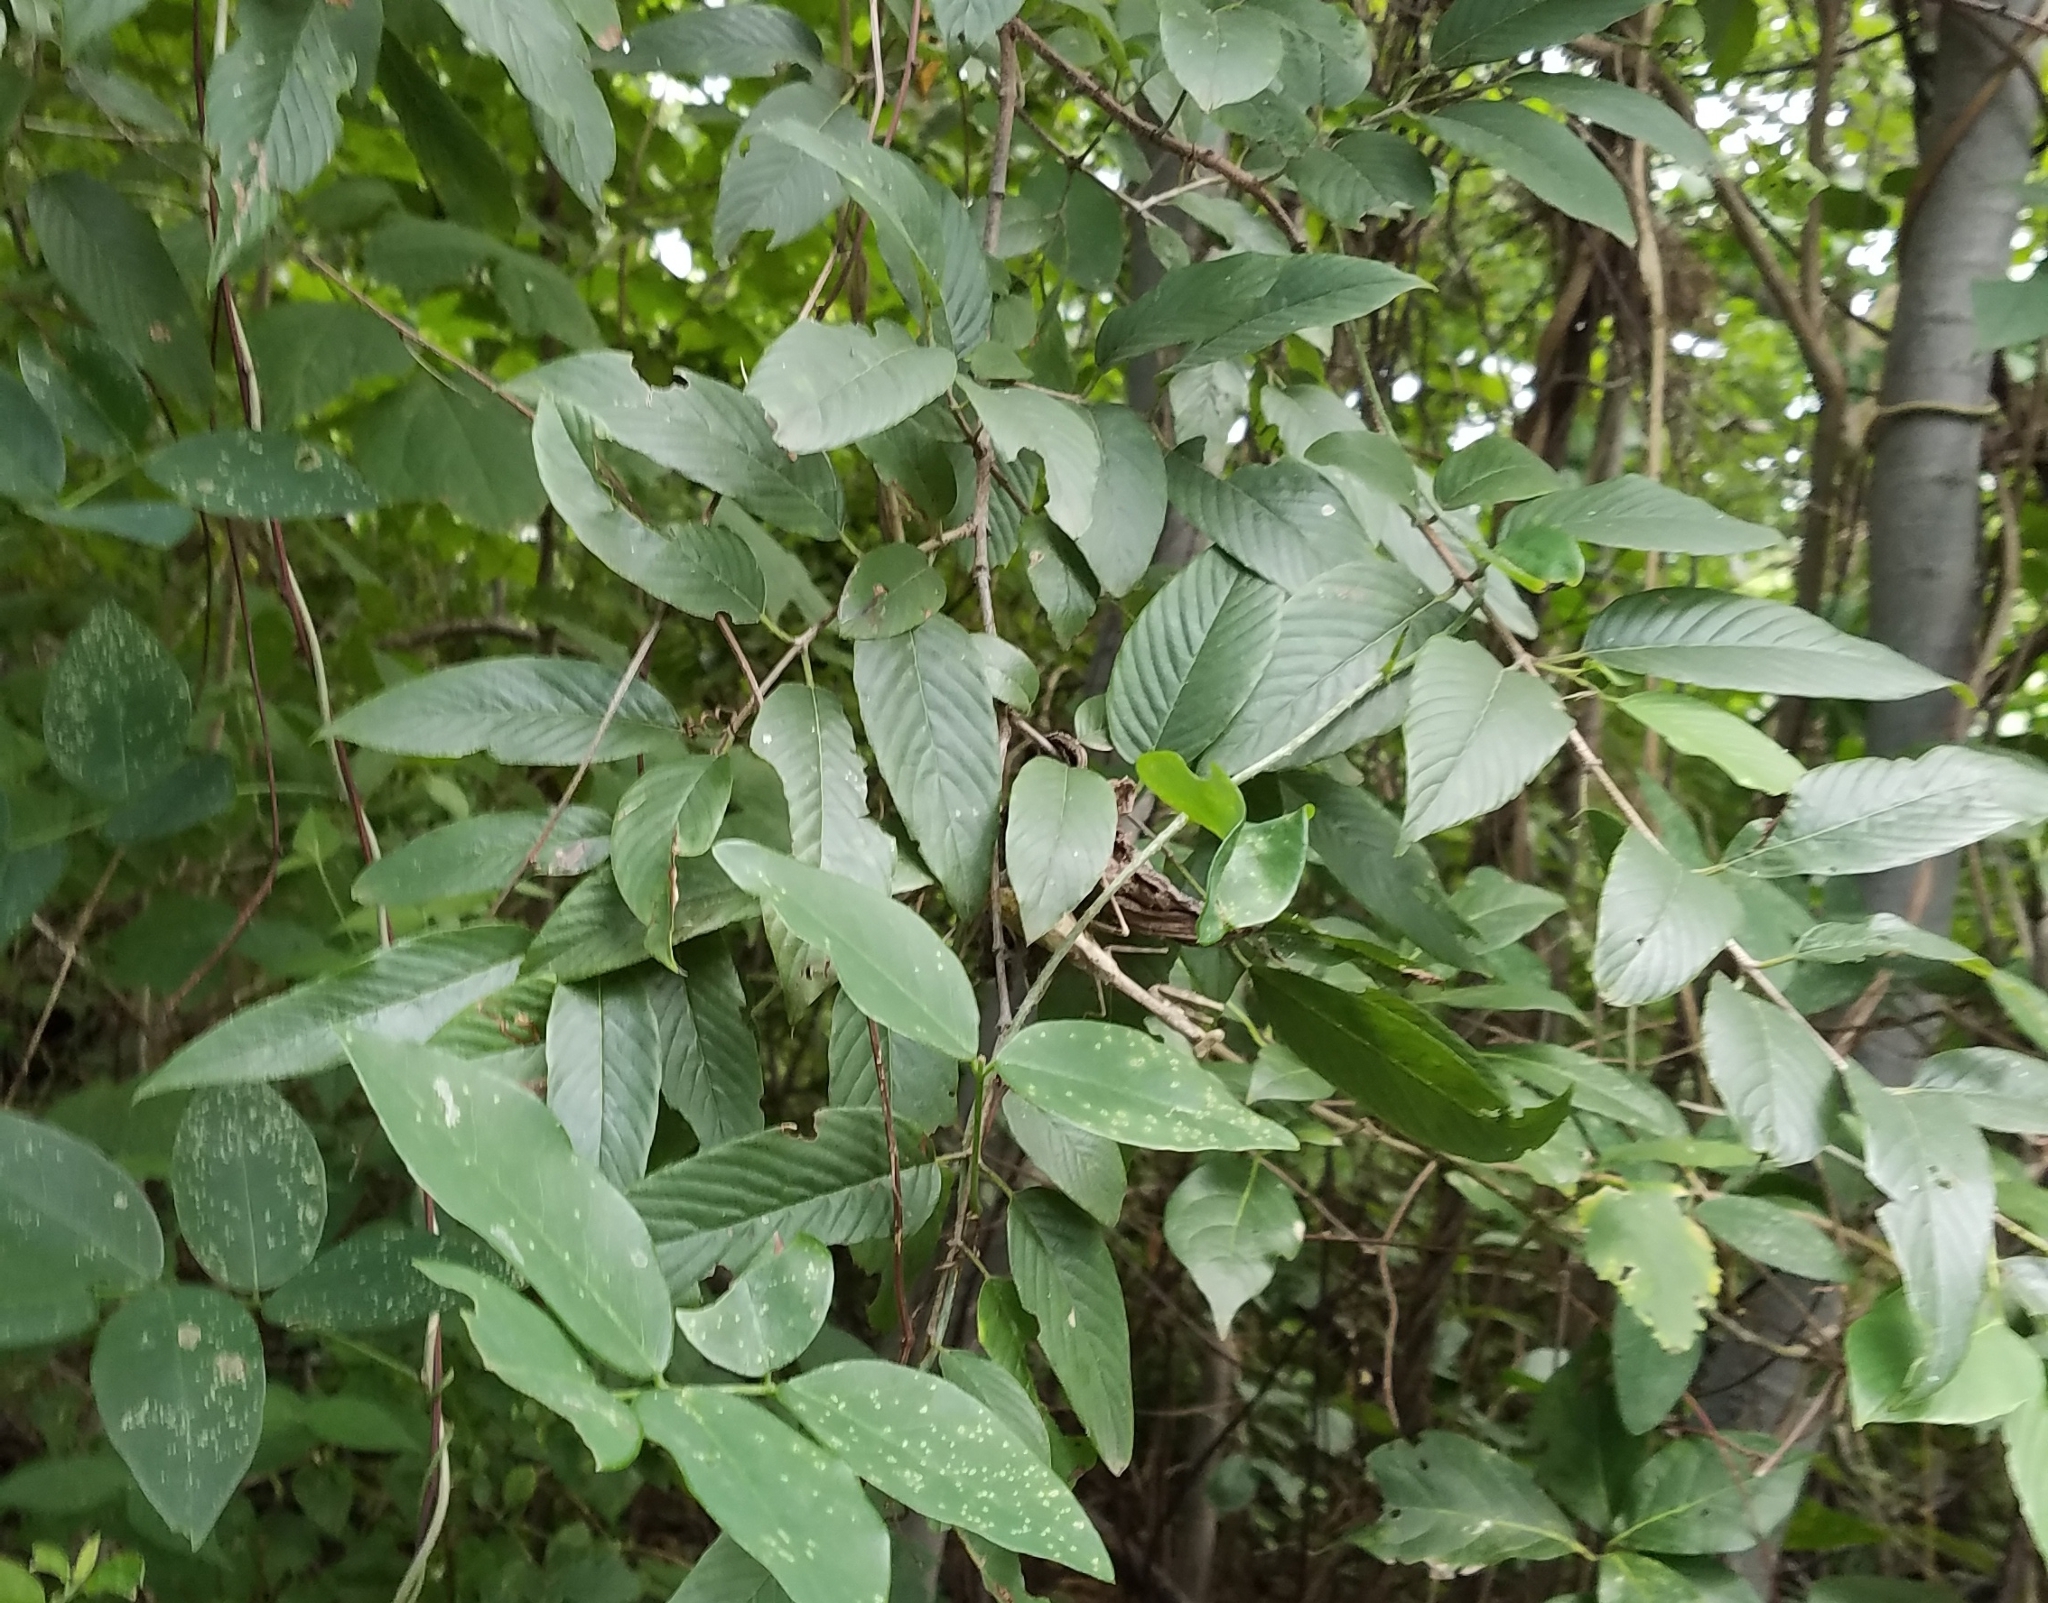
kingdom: Plantae
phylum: Tracheophyta
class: Magnoliopsida
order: Rosales
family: Rhamnaceae
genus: Karwinskia
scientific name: Karwinskia calderonii
